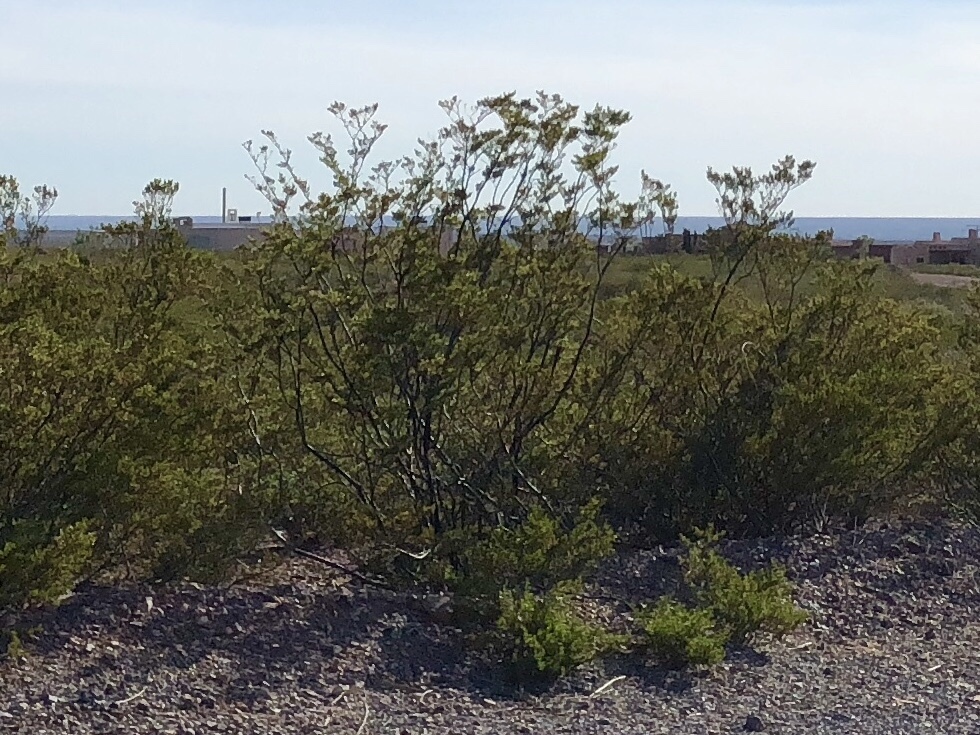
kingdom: Plantae
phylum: Tracheophyta
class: Magnoliopsida
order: Zygophyllales
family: Zygophyllaceae
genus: Larrea
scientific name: Larrea tridentata
